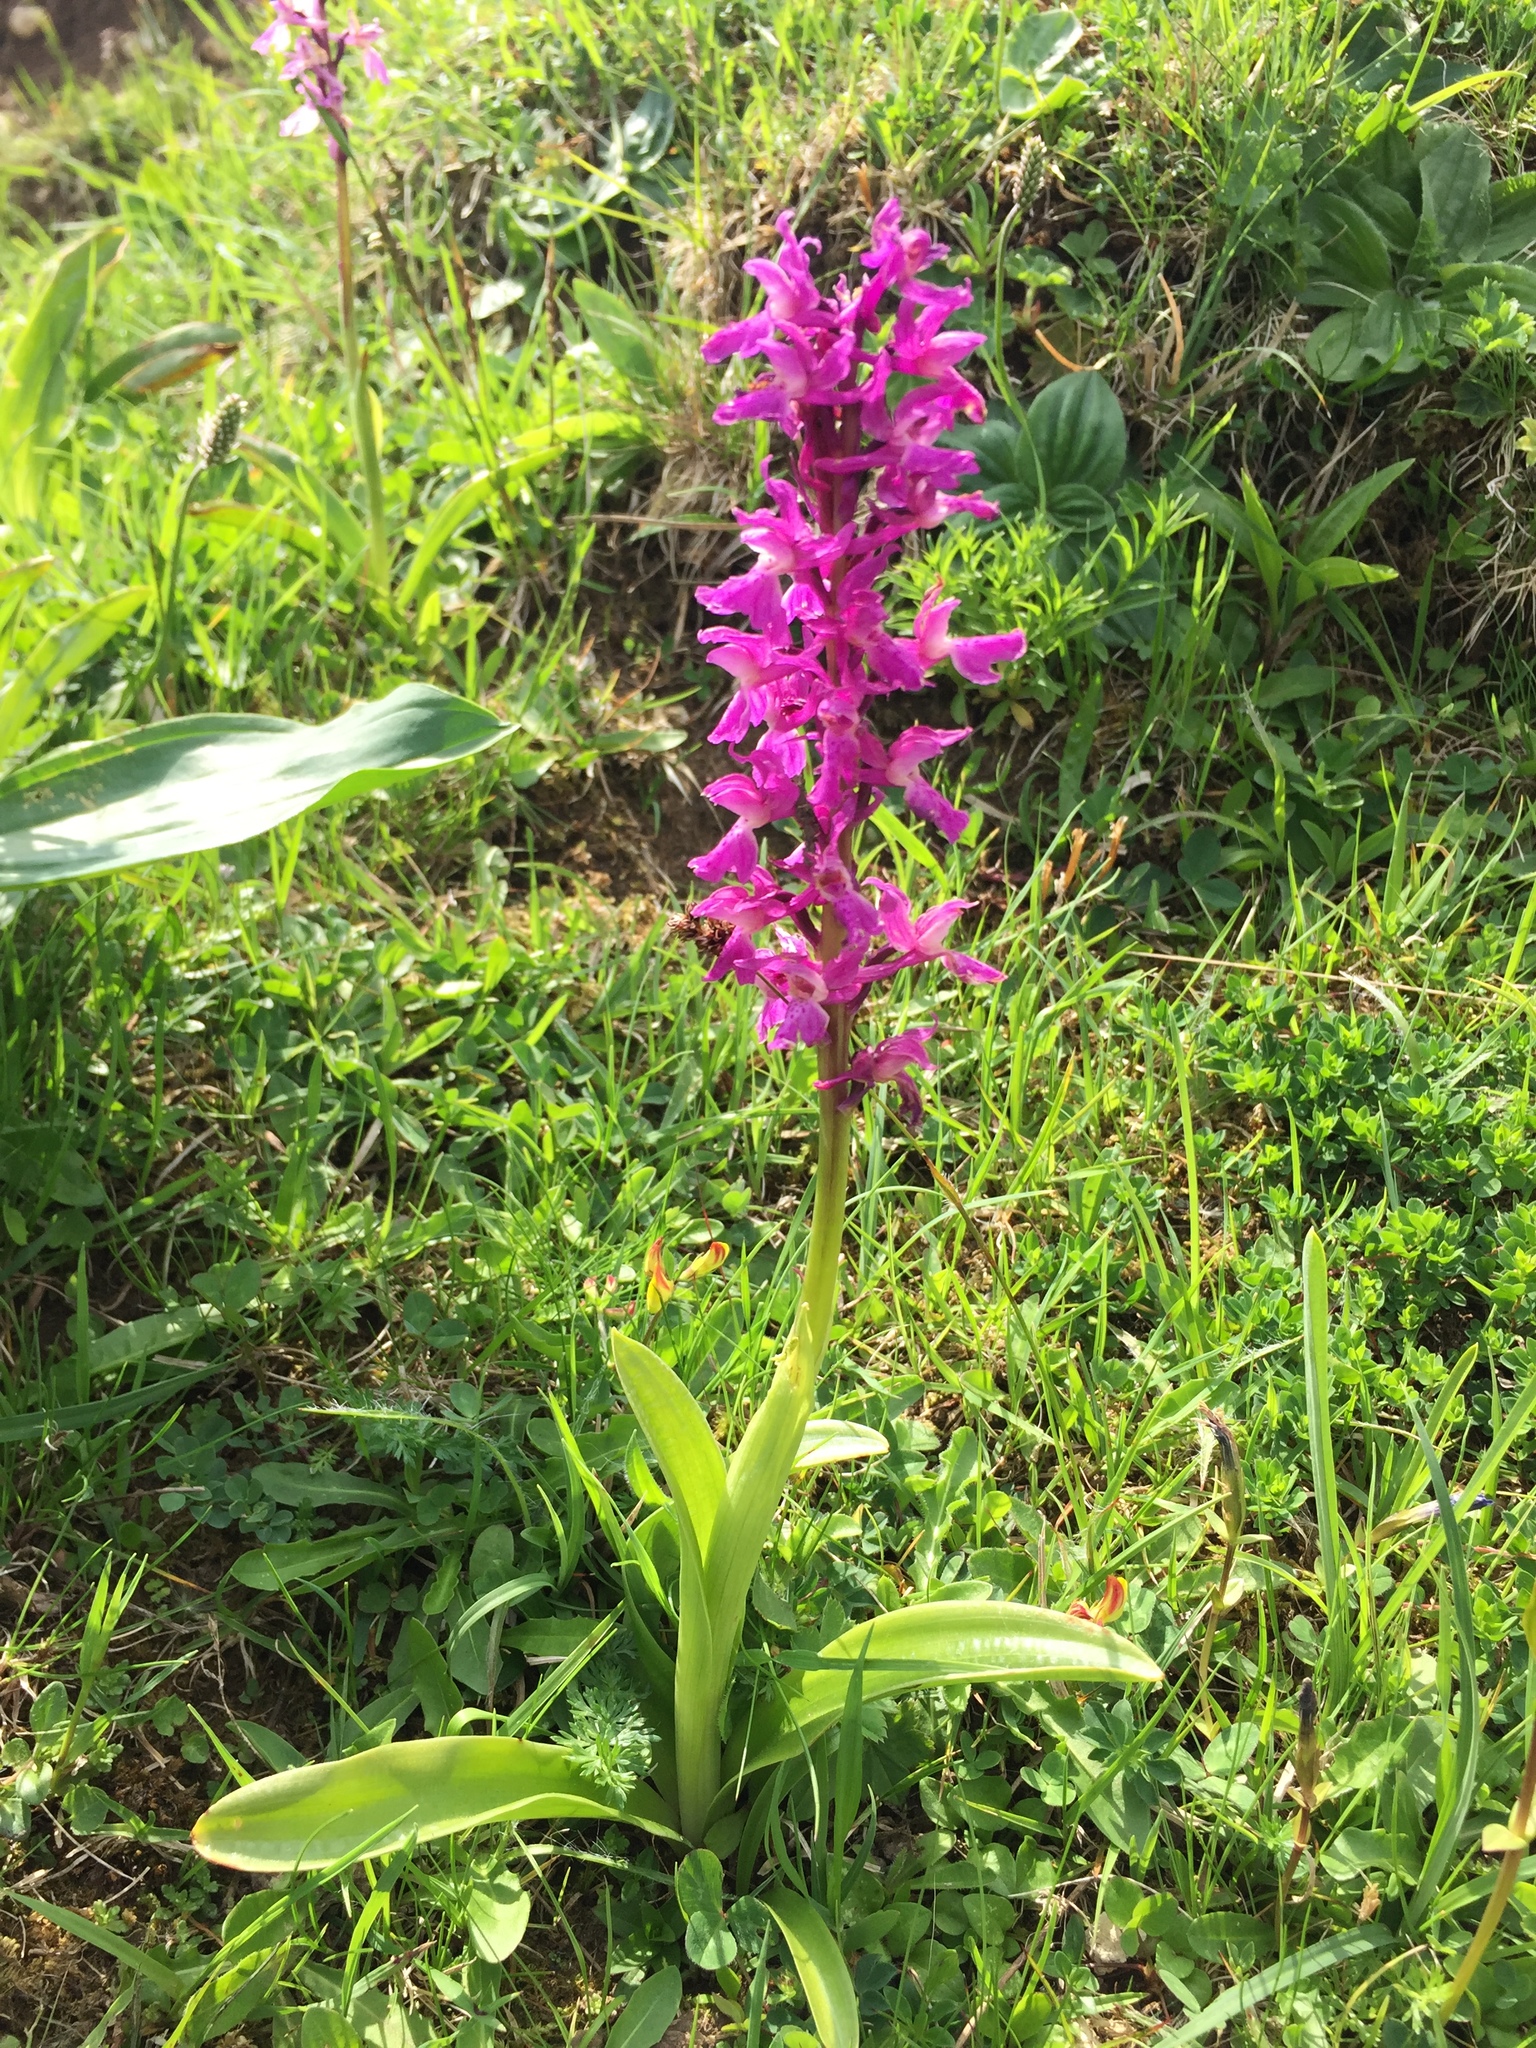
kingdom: Plantae
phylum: Tracheophyta
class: Liliopsida
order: Asparagales
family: Orchidaceae
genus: Orchis
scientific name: Orchis mascula
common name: Early-purple orchid
